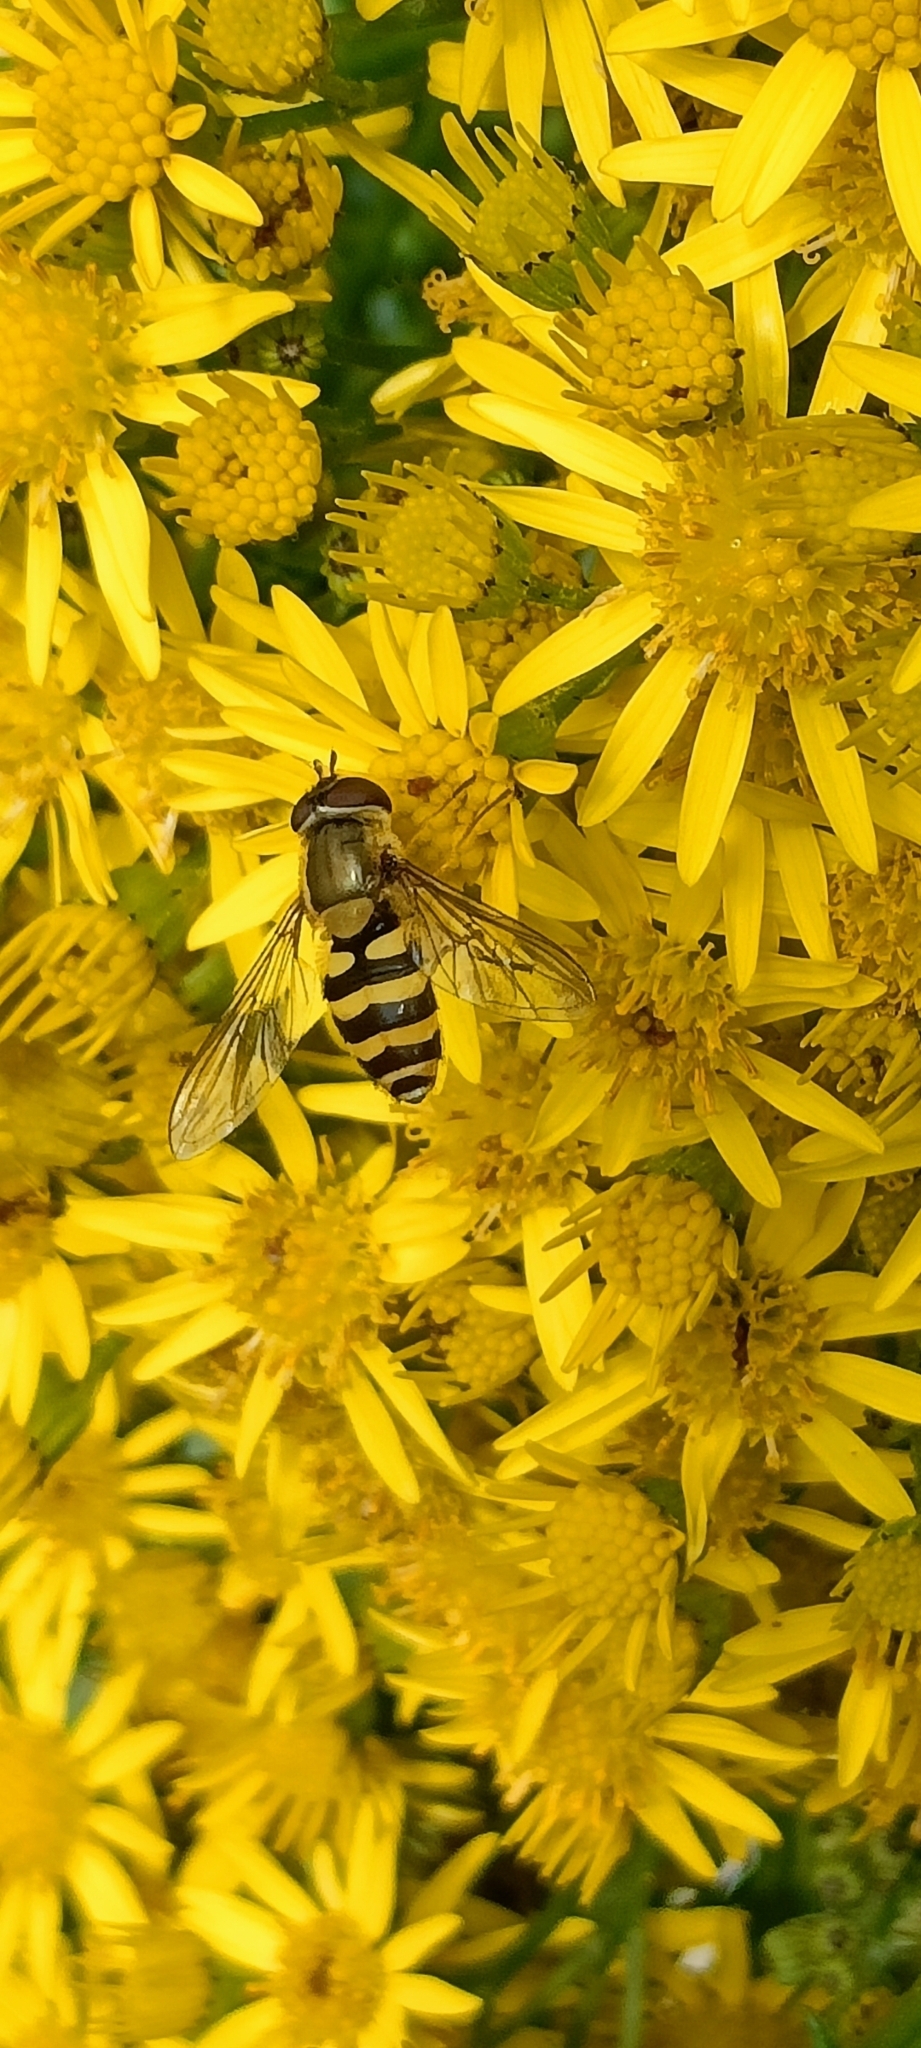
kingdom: Animalia
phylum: Arthropoda
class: Insecta
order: Diptera
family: Syrphidae
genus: Syrphus
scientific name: Syrphus
